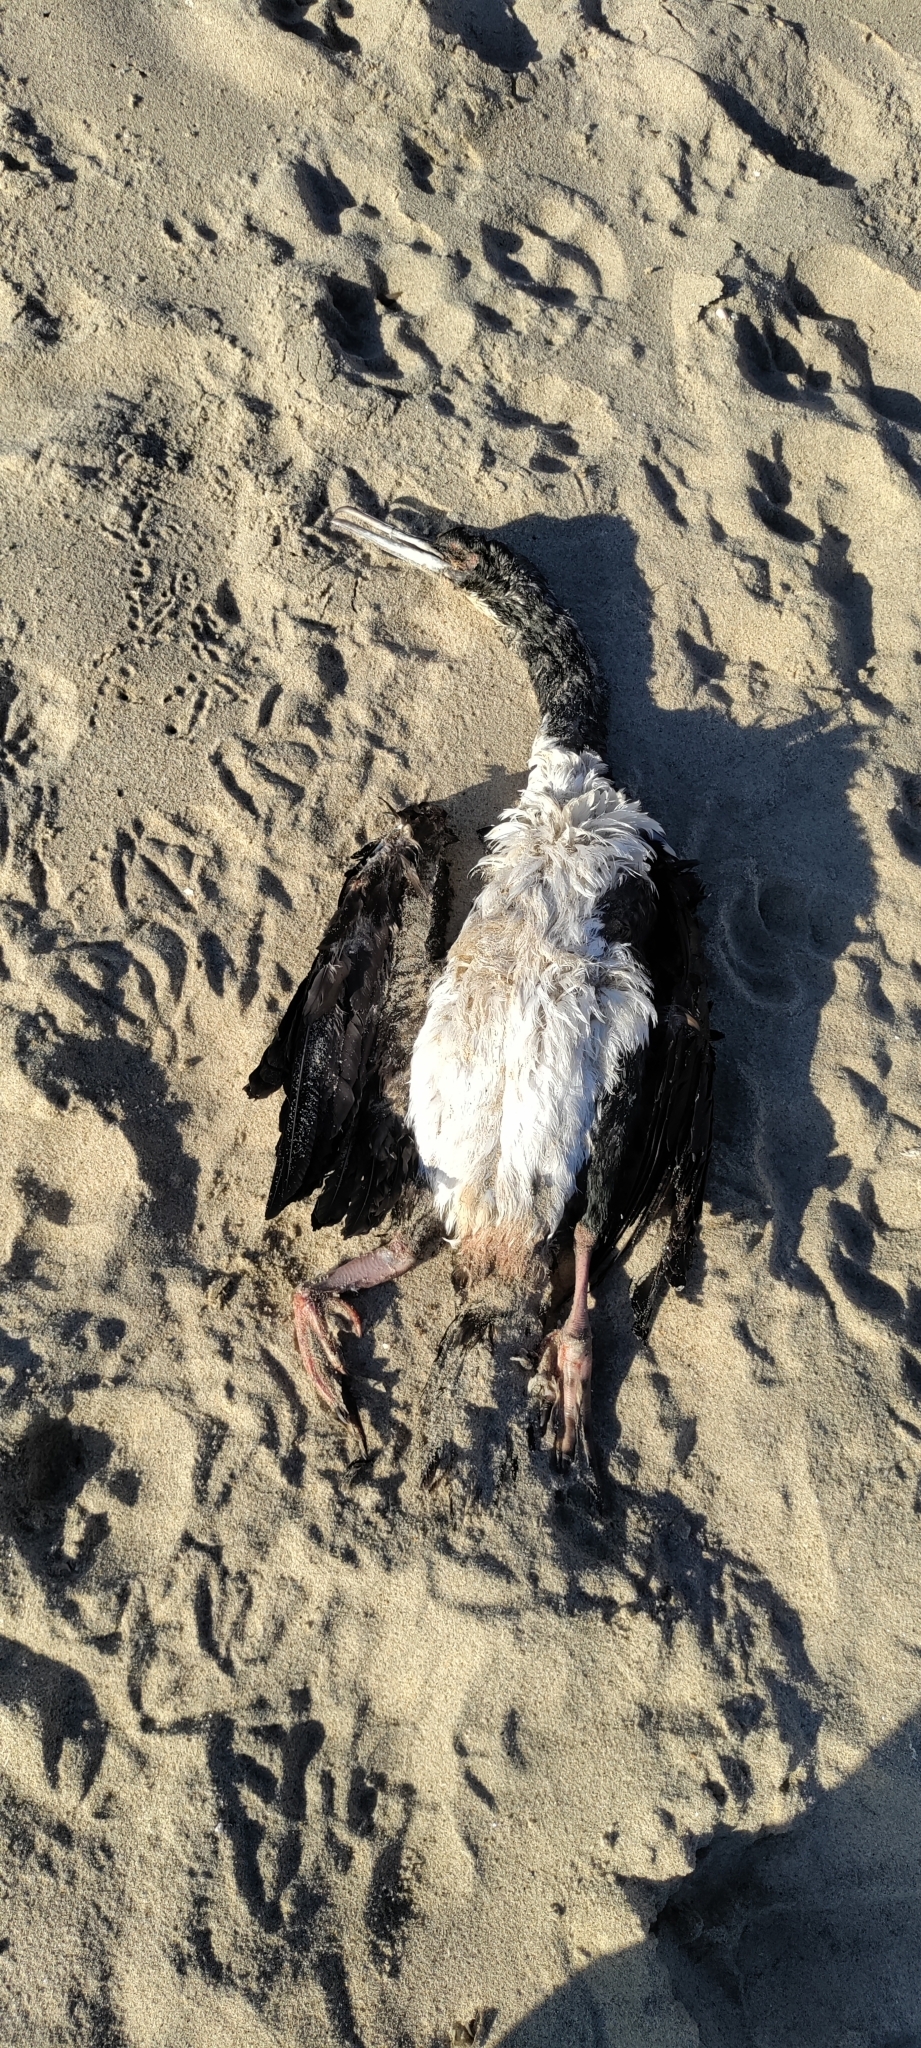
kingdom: Animalia
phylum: Chordata
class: Aves
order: Suliformes
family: Phalacrocoracidae
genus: Leucocarbo
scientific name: Leucocarbo bougainvillii
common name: Guanay cormorant
